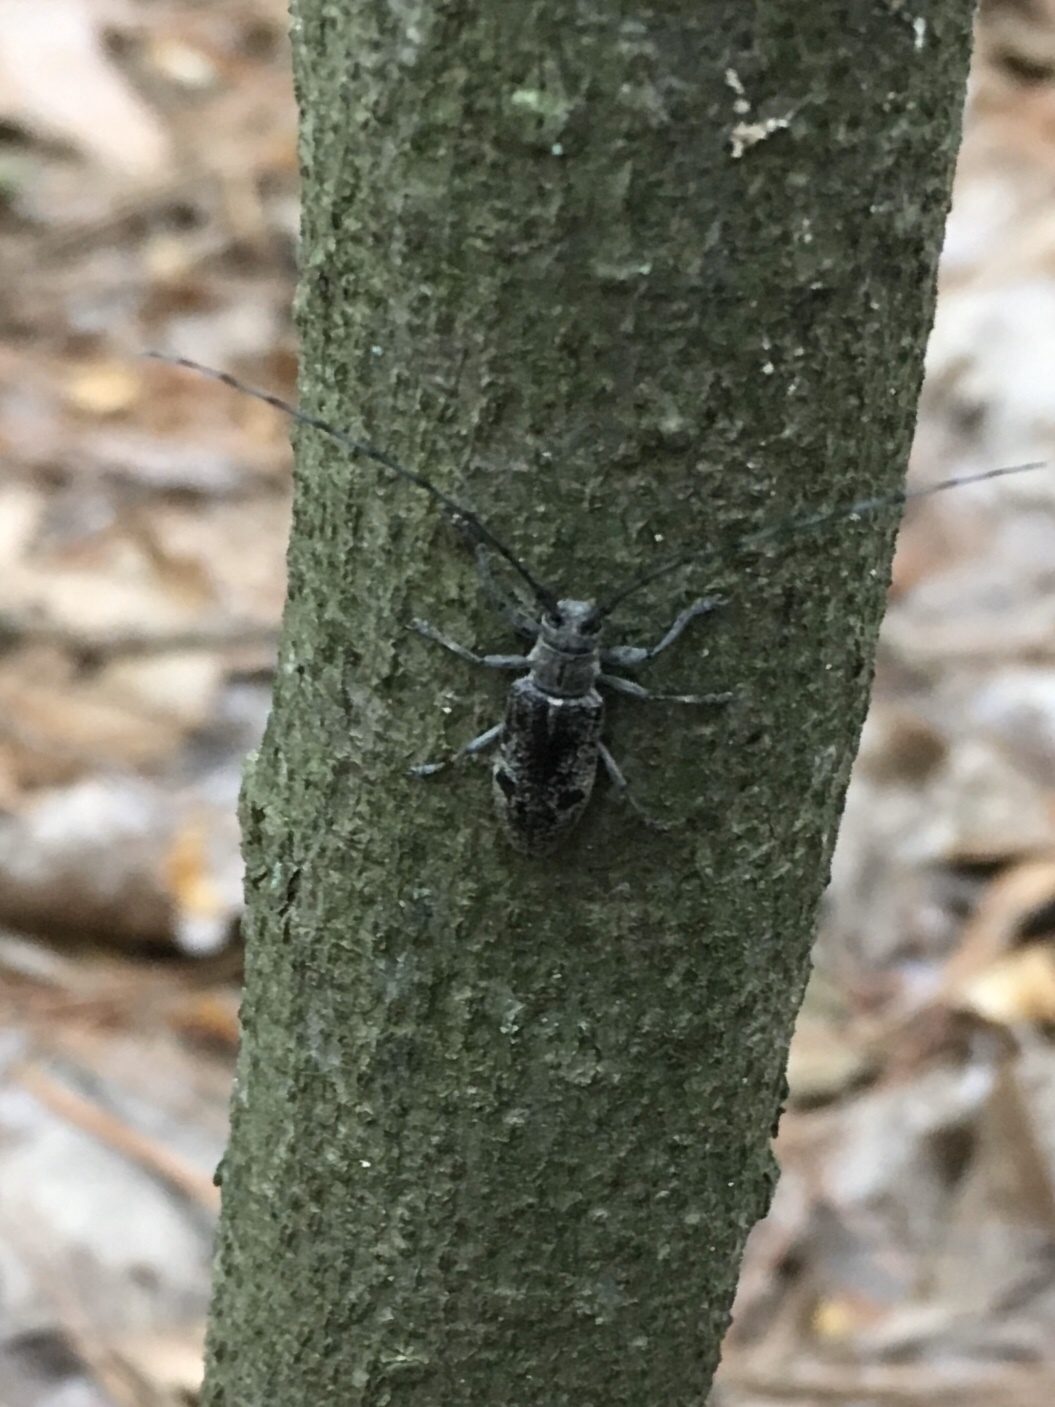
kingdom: Animalia
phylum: Arthropoda
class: Insecta
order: Coleoptera
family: Cerambycidae
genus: Microgoes
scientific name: Microgoes oculatus
